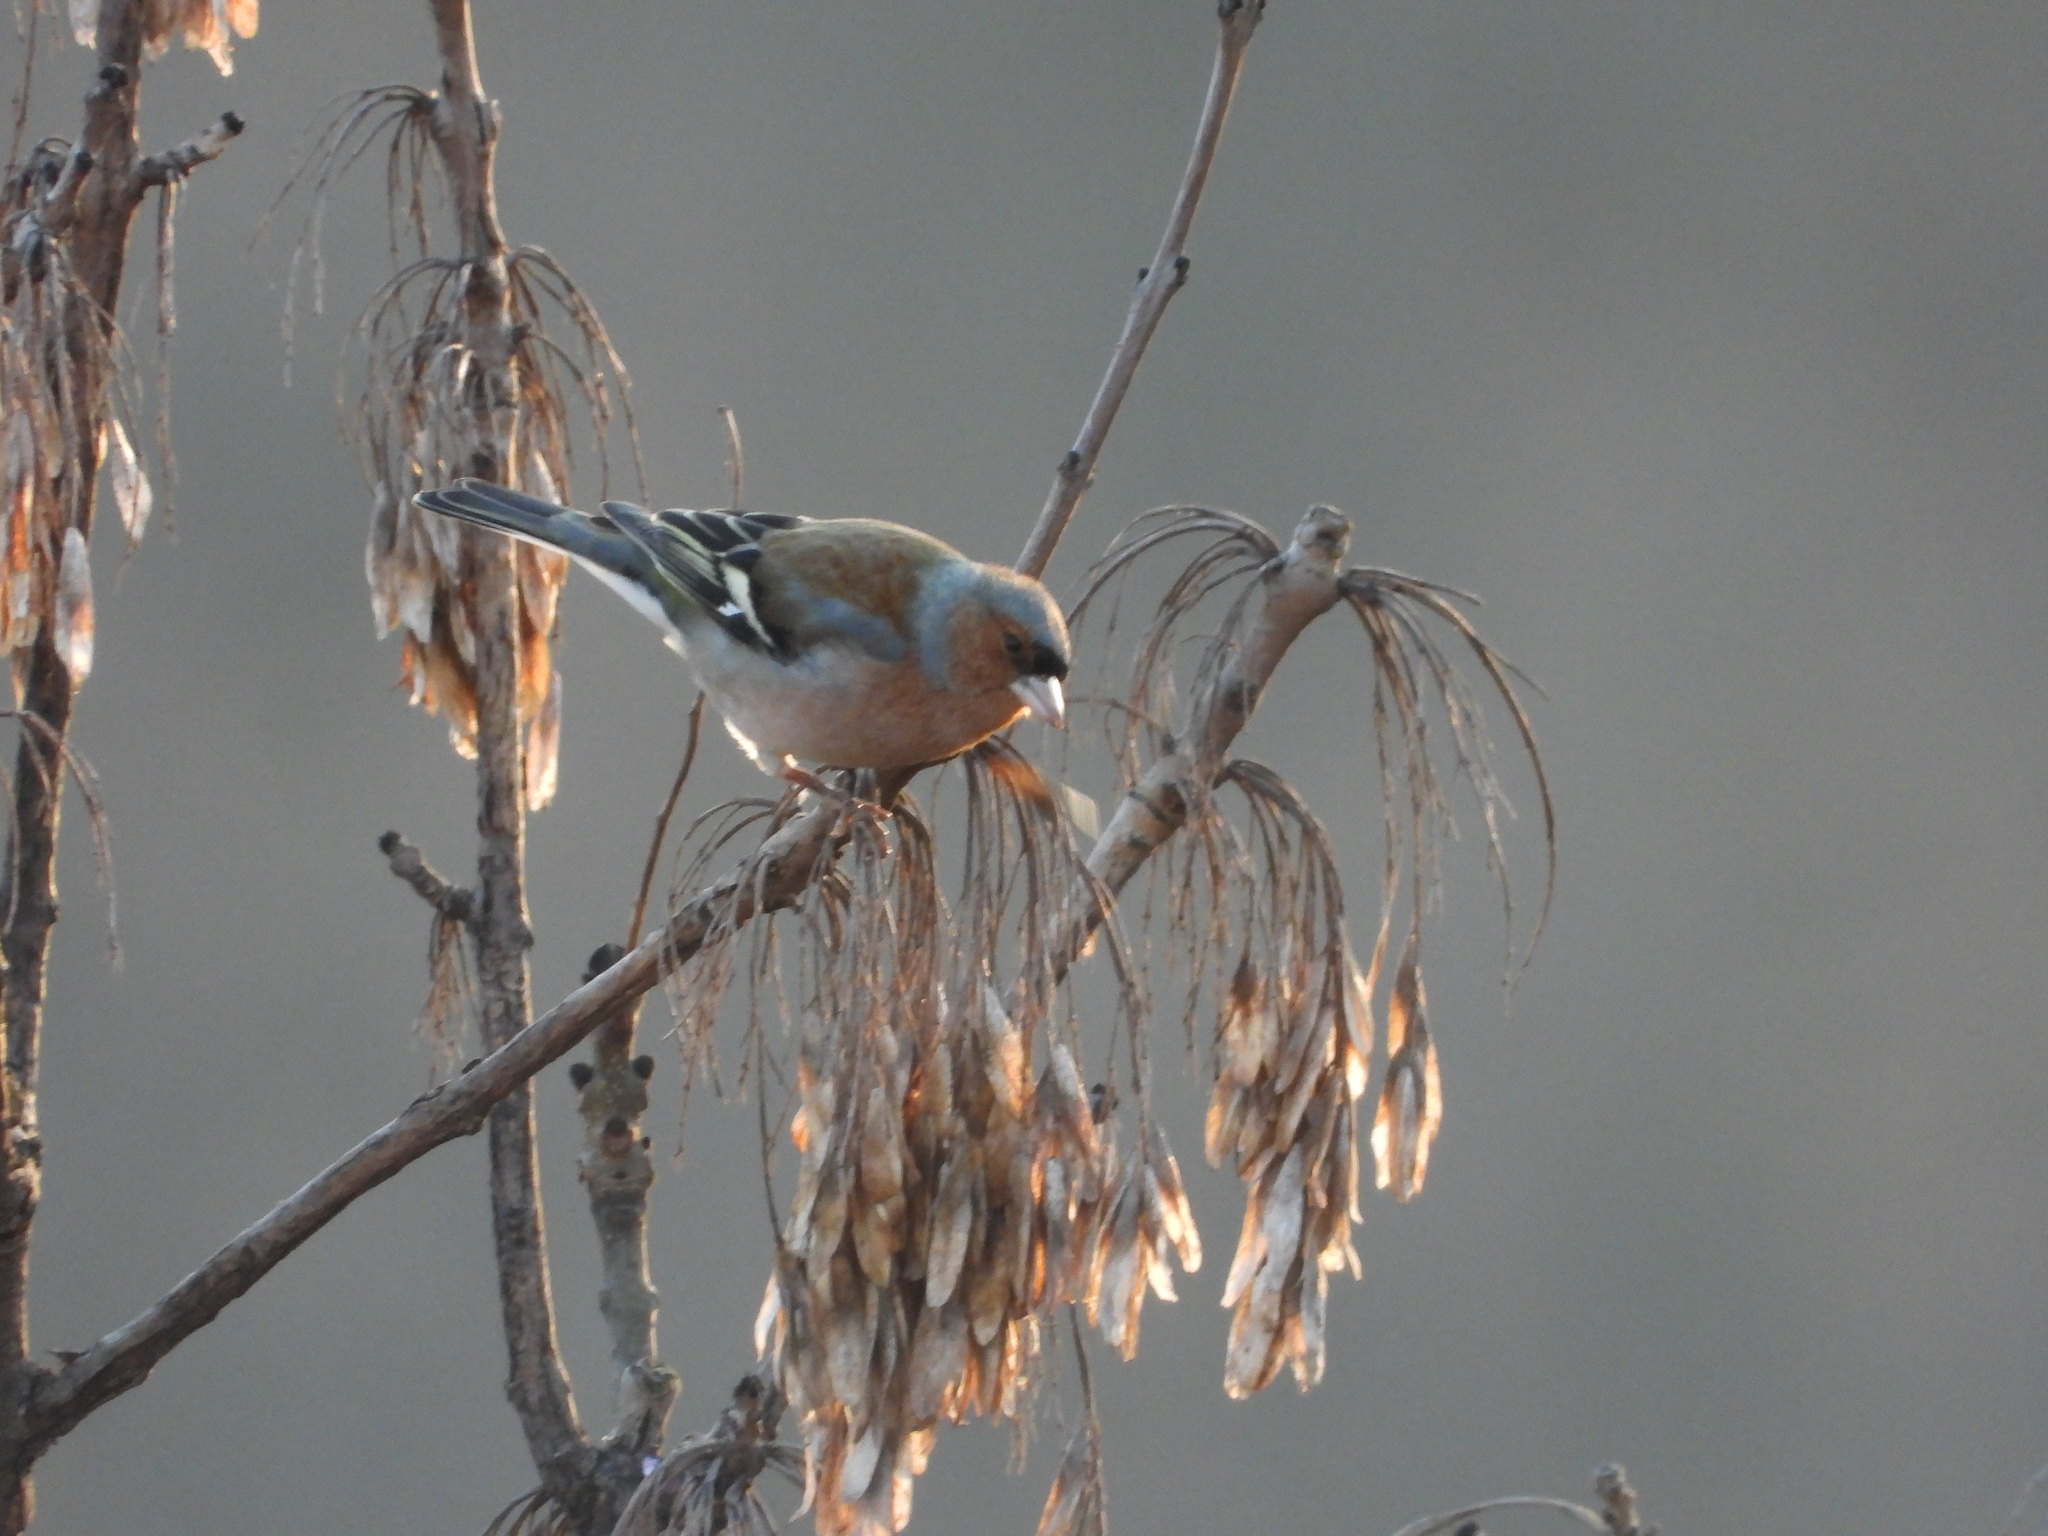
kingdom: Animalia
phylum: Chordata
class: Aves
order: Passeriformes
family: Fringillidae
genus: Fringilla
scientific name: Fringilla coelebs
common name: Common chaffinch
